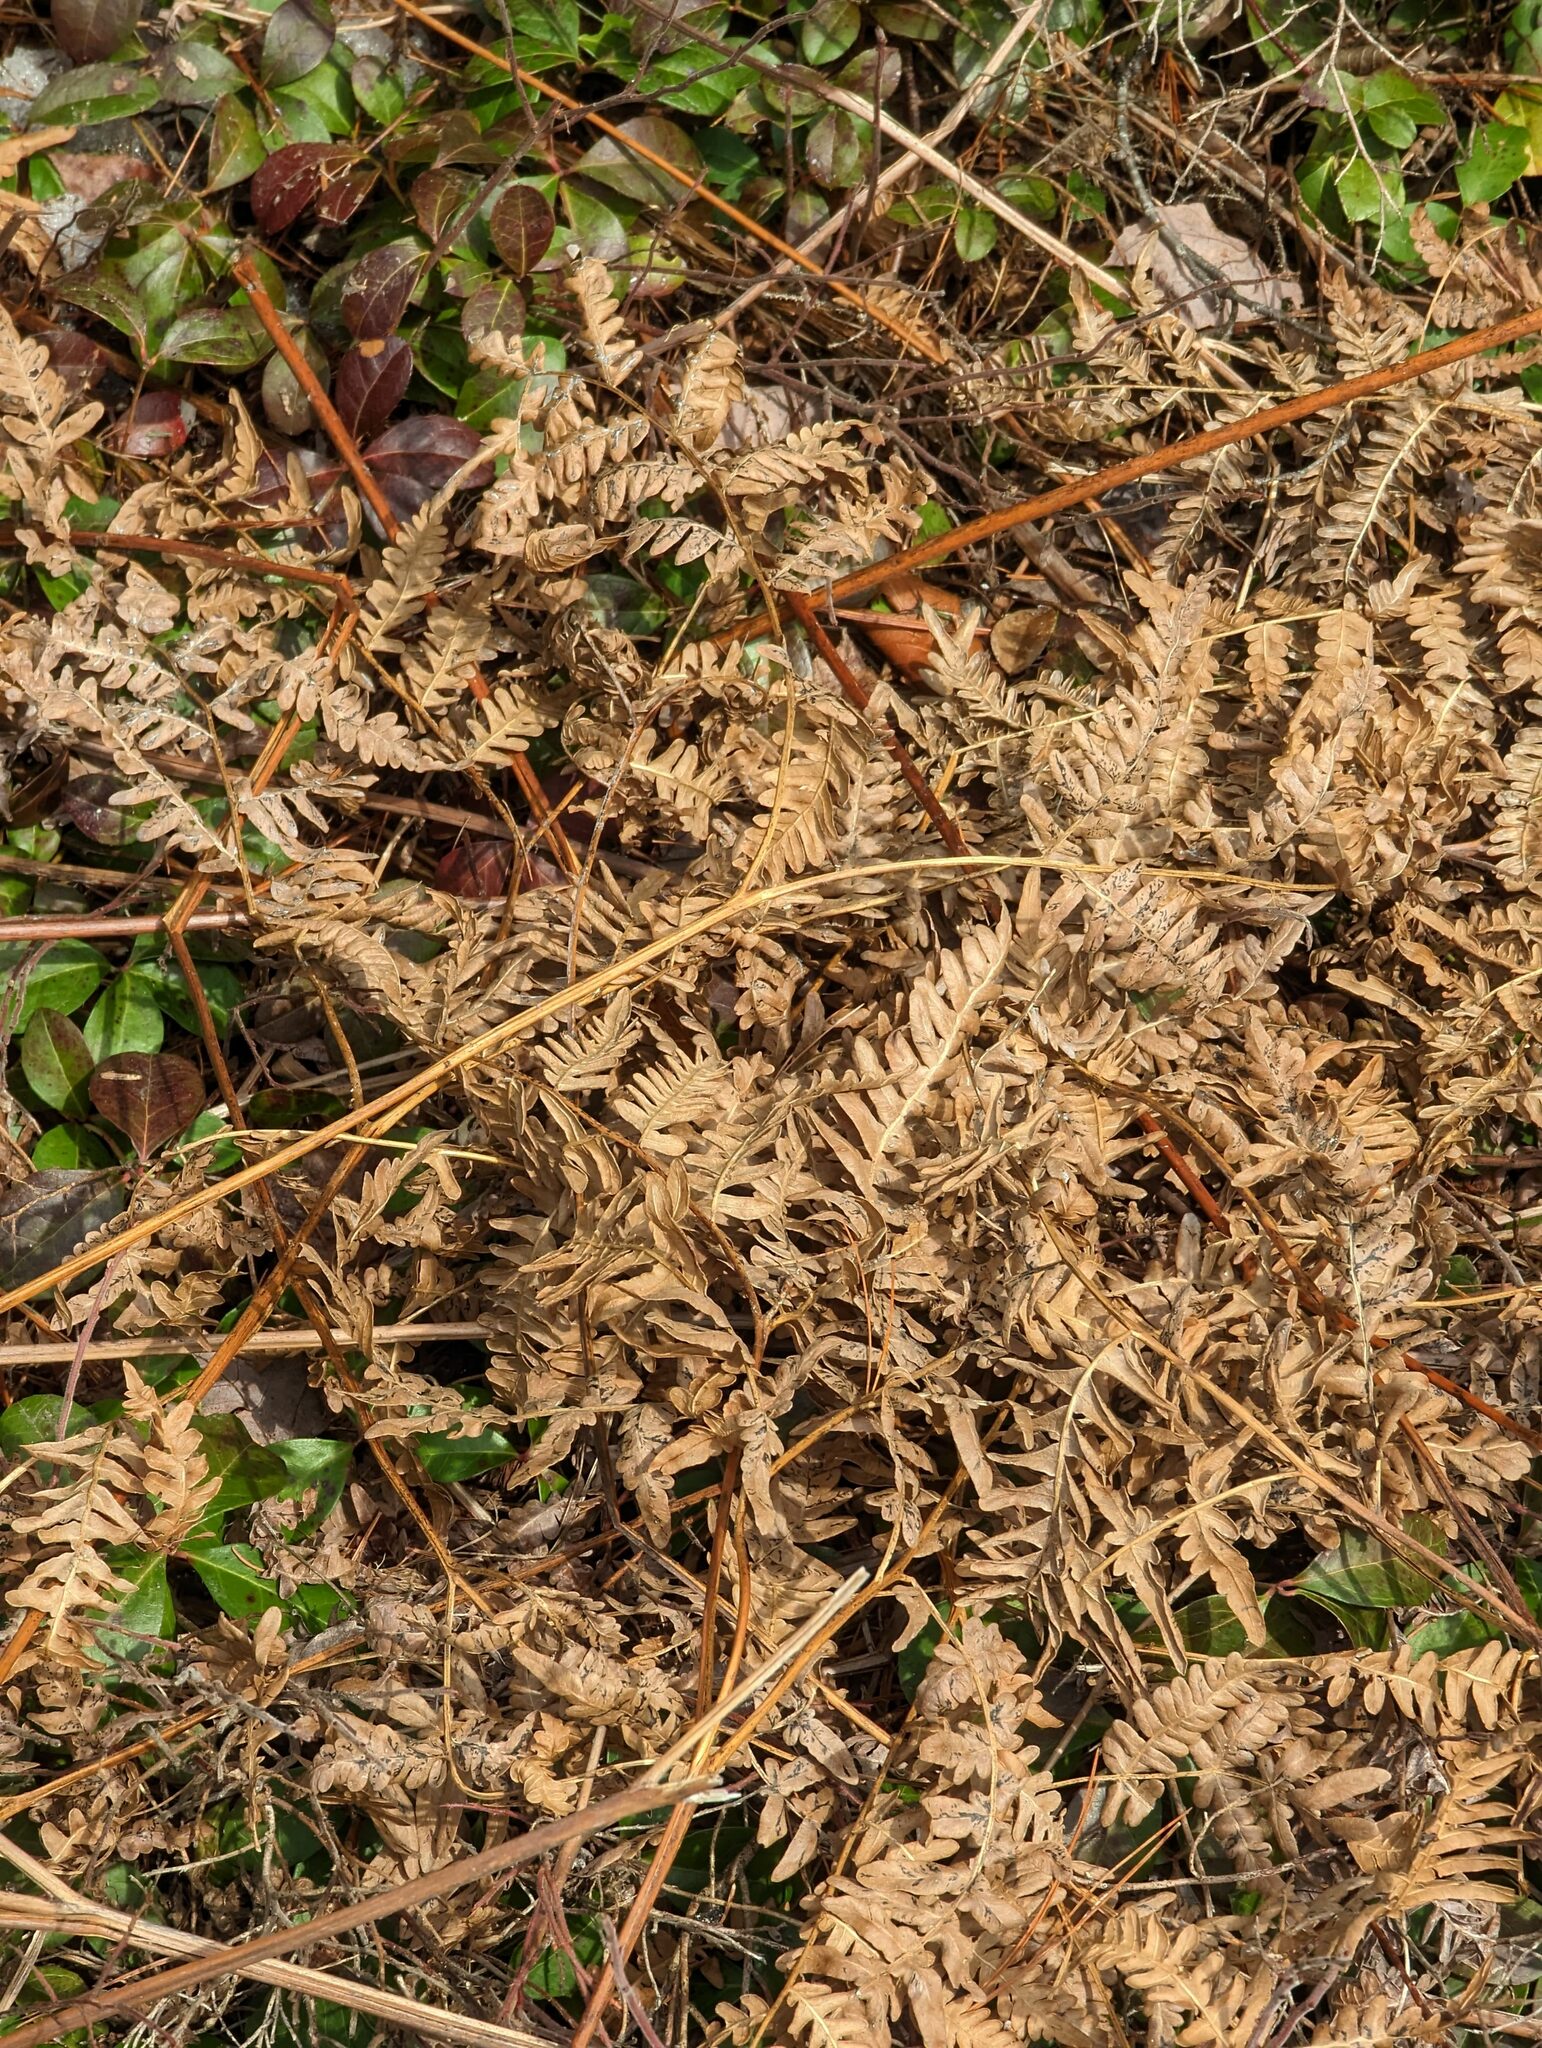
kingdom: Plantae
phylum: Tracheophyta
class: Polypodiopsida
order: Polypodiales
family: Dennstaedtiaceae
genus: Pteridium
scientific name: Pteridium aquilinum
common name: Bracken
